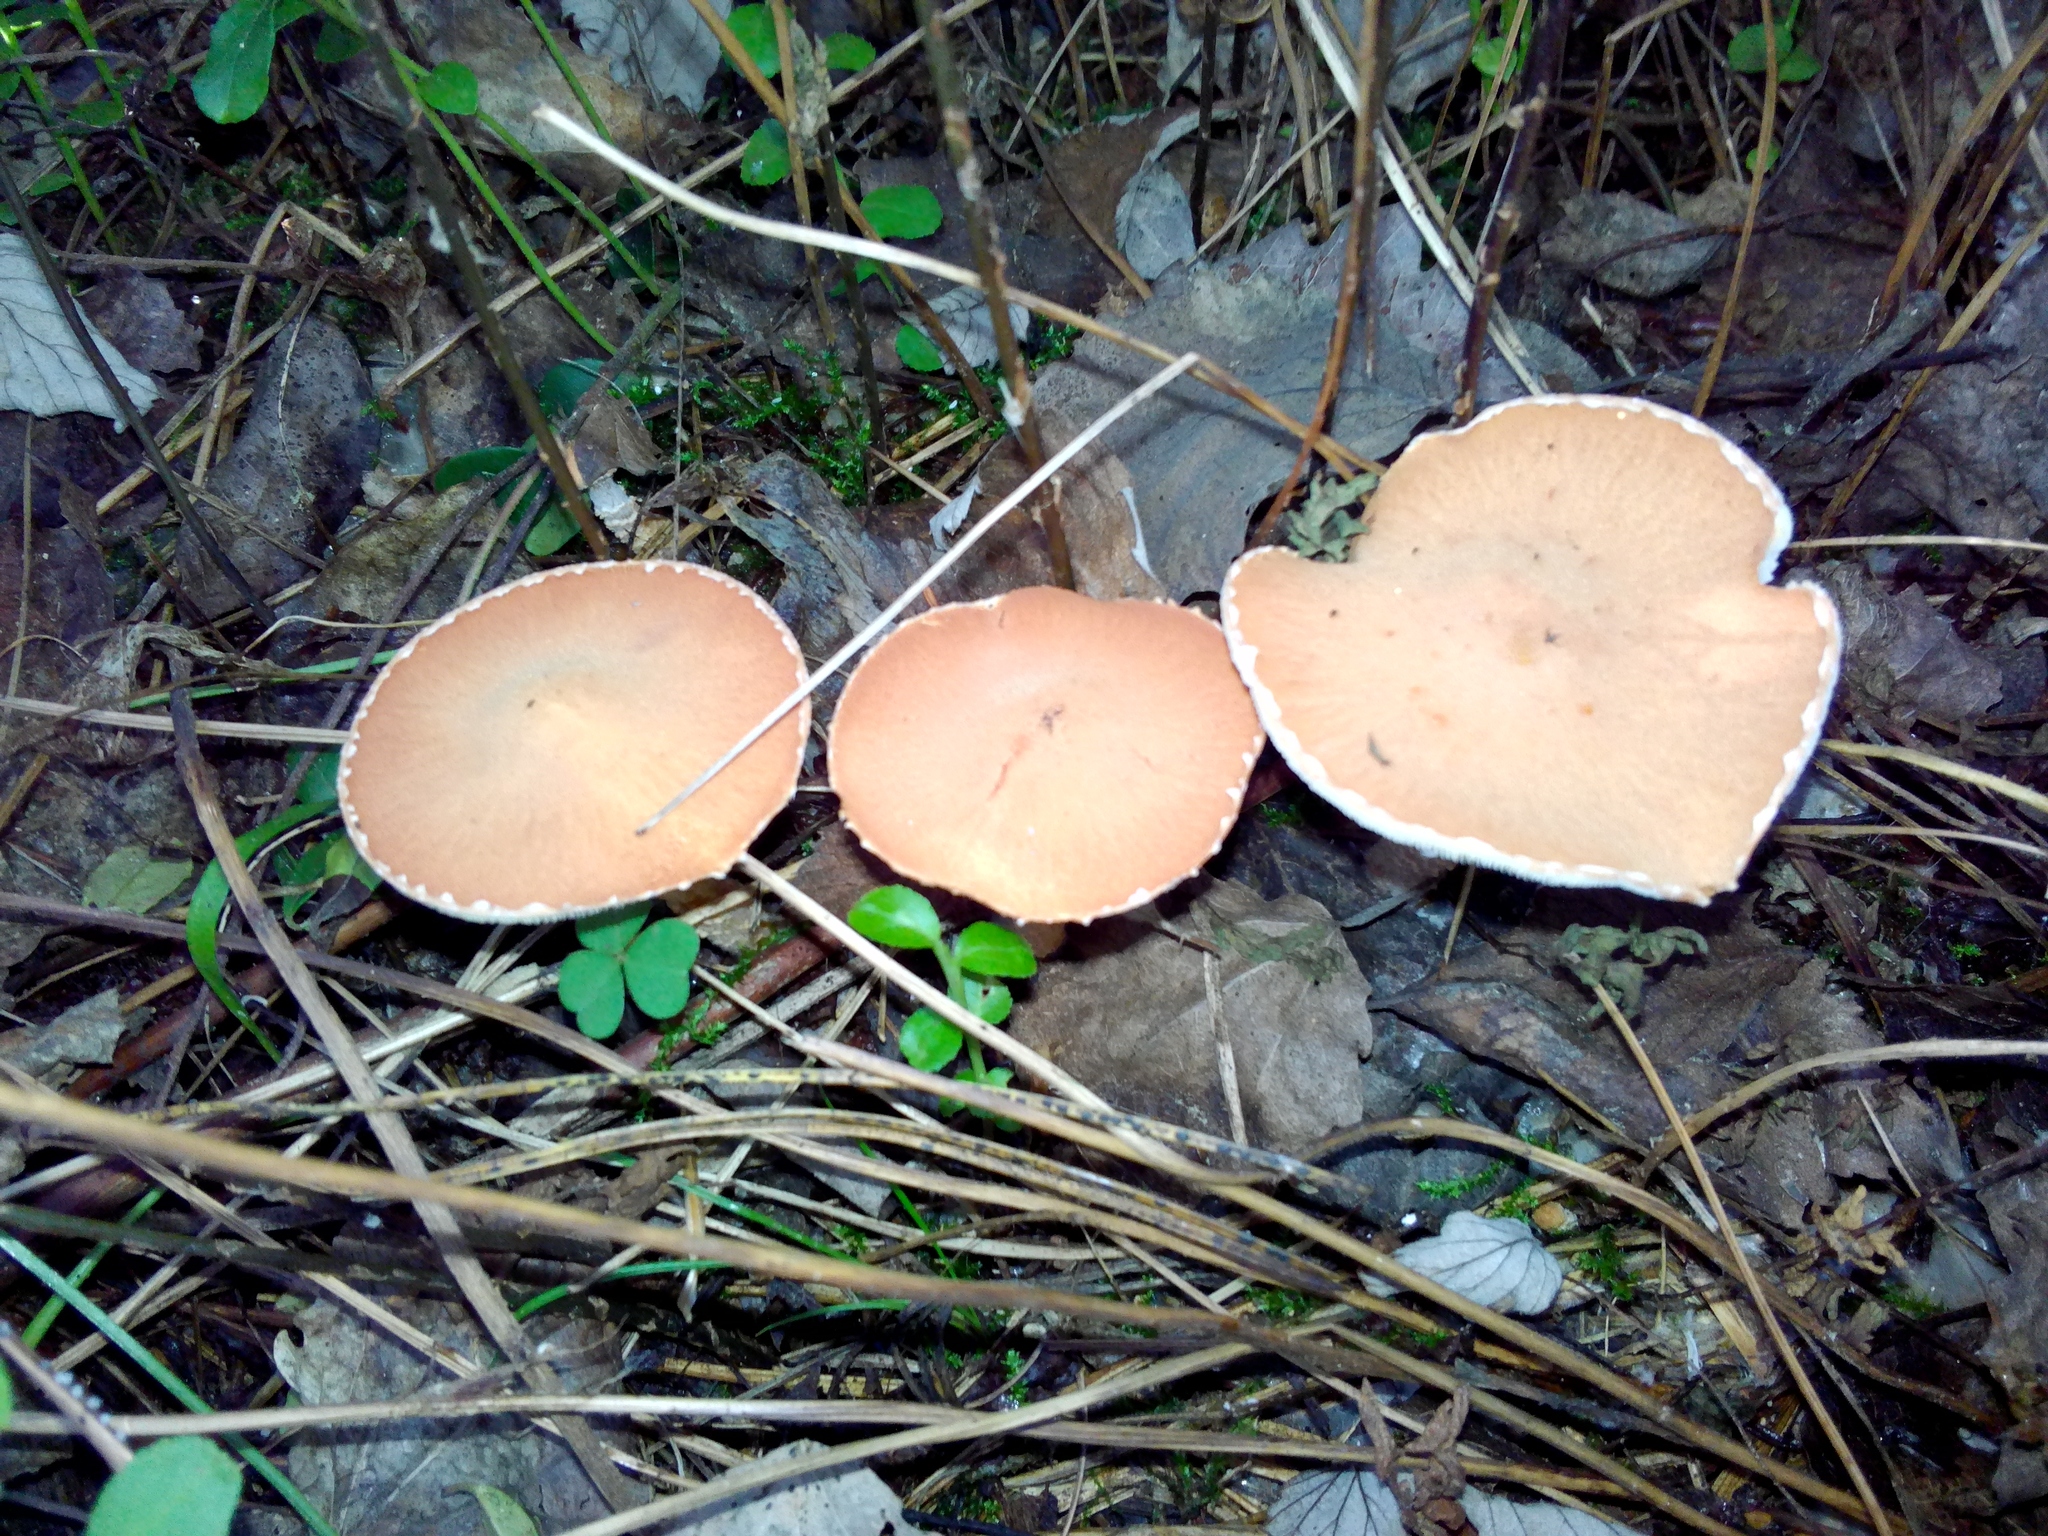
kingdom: Fungi
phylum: Basidiomycota
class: Agaricomycetes
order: Agaricales
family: Agaricaceae
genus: Cystodermella
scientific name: Cystodermella cinnabarina
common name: Cinnabar powdercap
